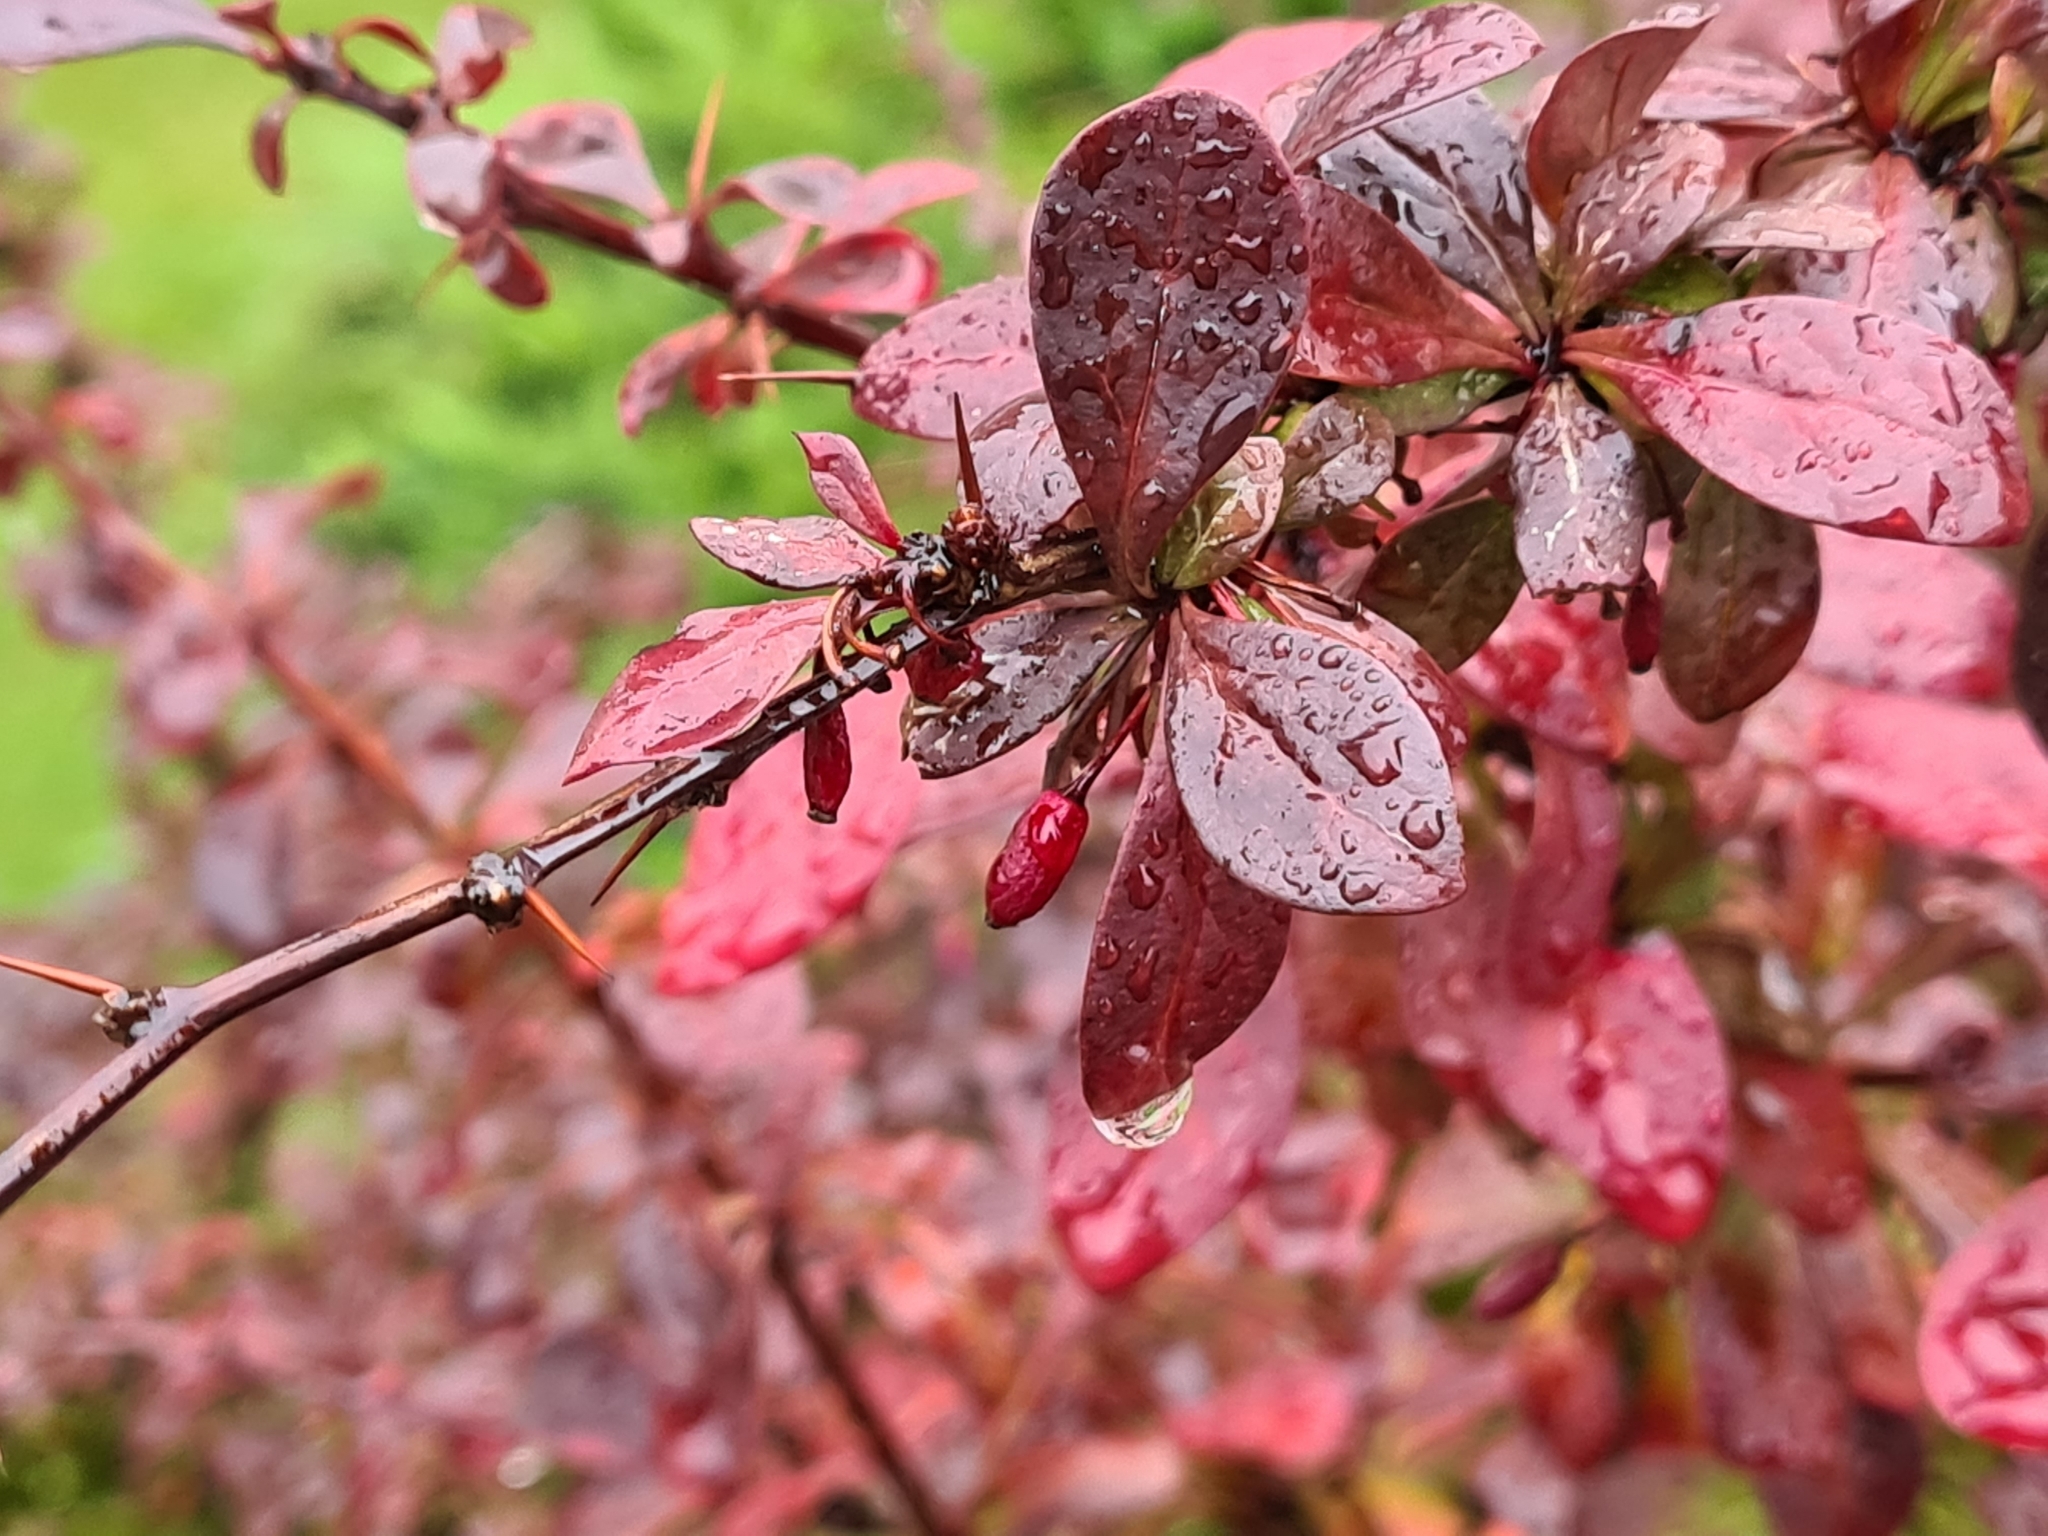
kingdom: Plantae
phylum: Tracheophyta
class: Magnoliopsida
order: Ranunculales
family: Berberidaceae
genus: Berberis
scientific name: Berberis thunbergii
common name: Japanese barberry
